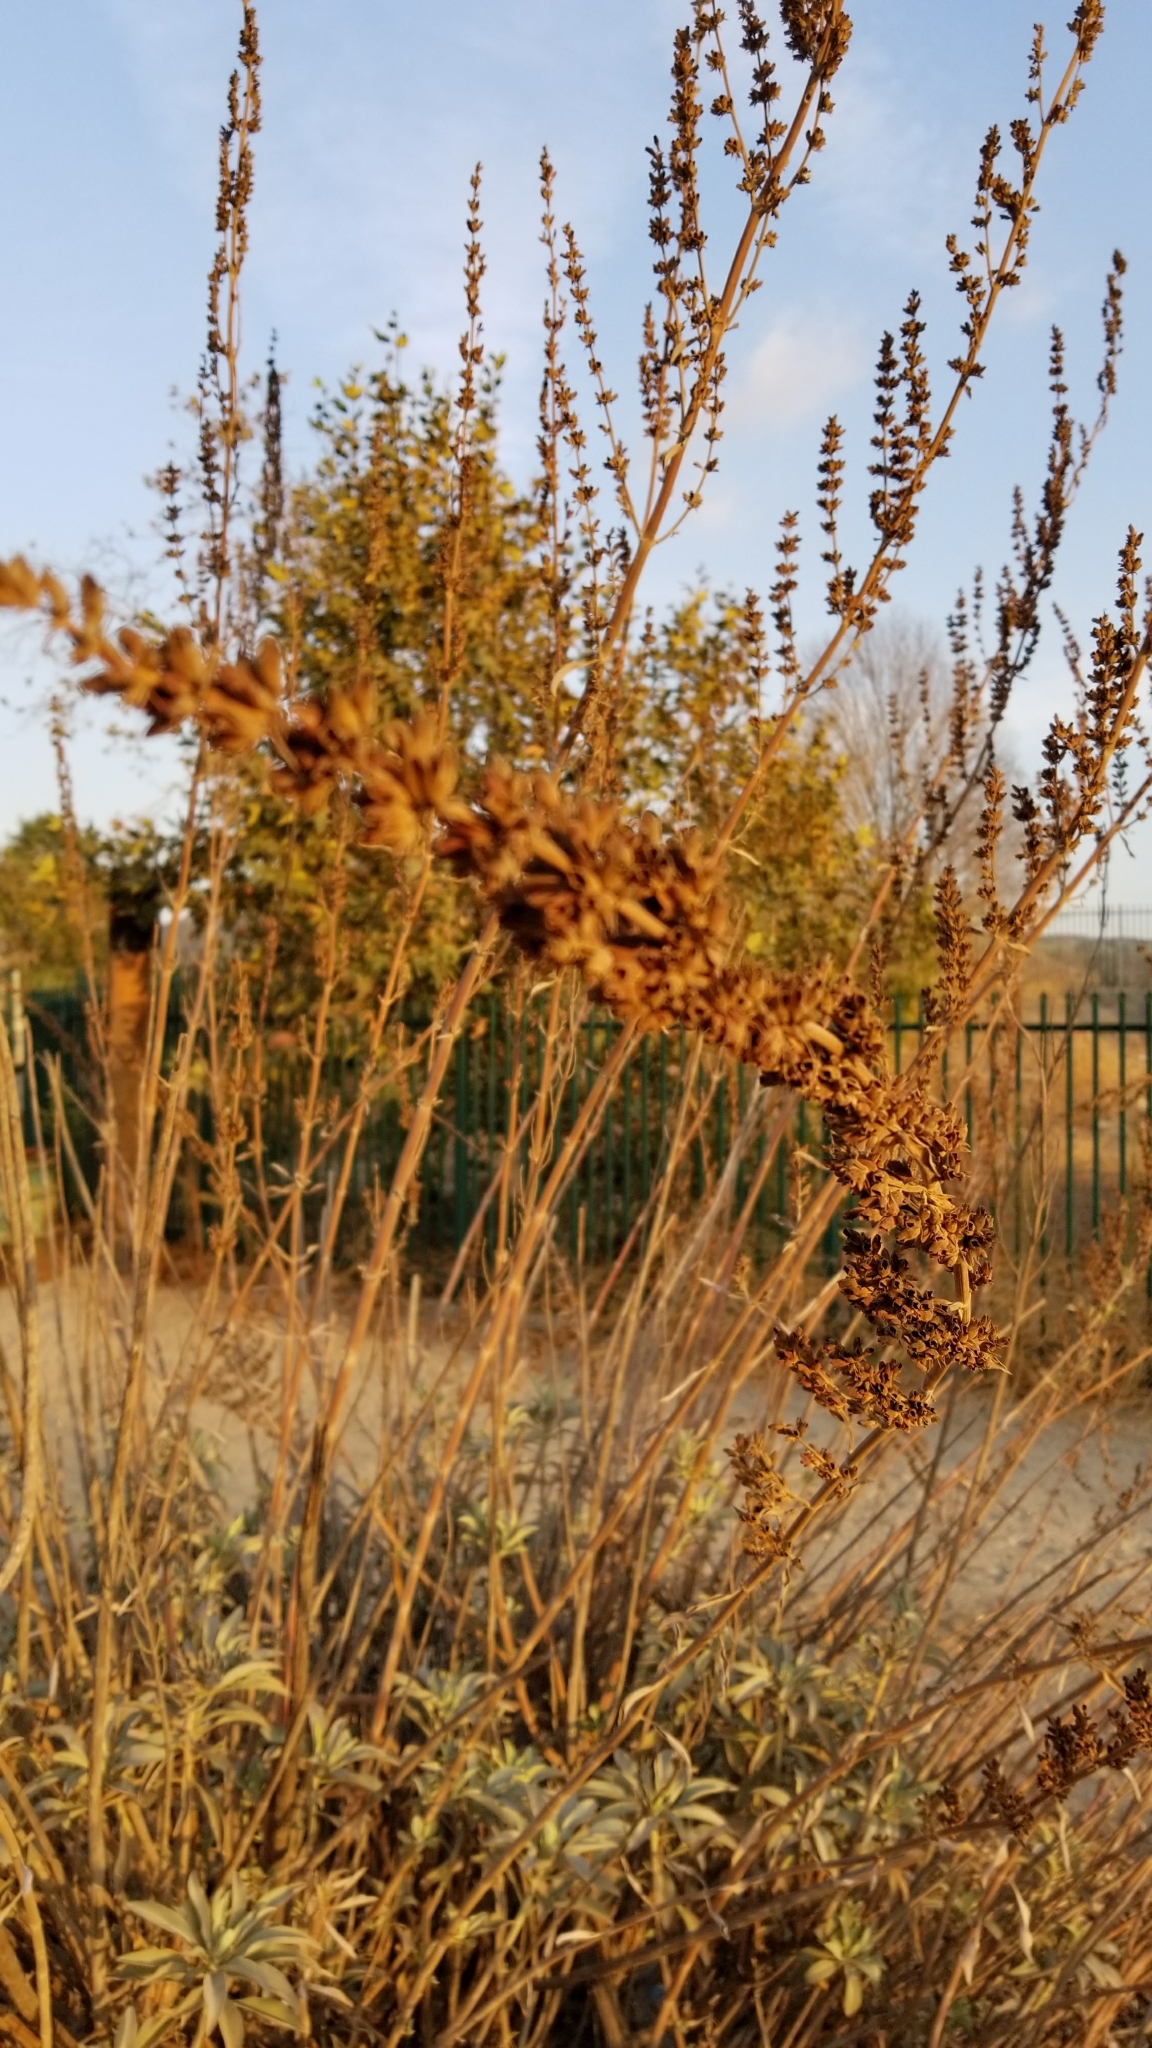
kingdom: Plantae
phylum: Tracheophyta
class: Magnoliopsida
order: Lamiales
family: Lamiaceae
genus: Salvia
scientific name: Salvia apiana
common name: White sage
